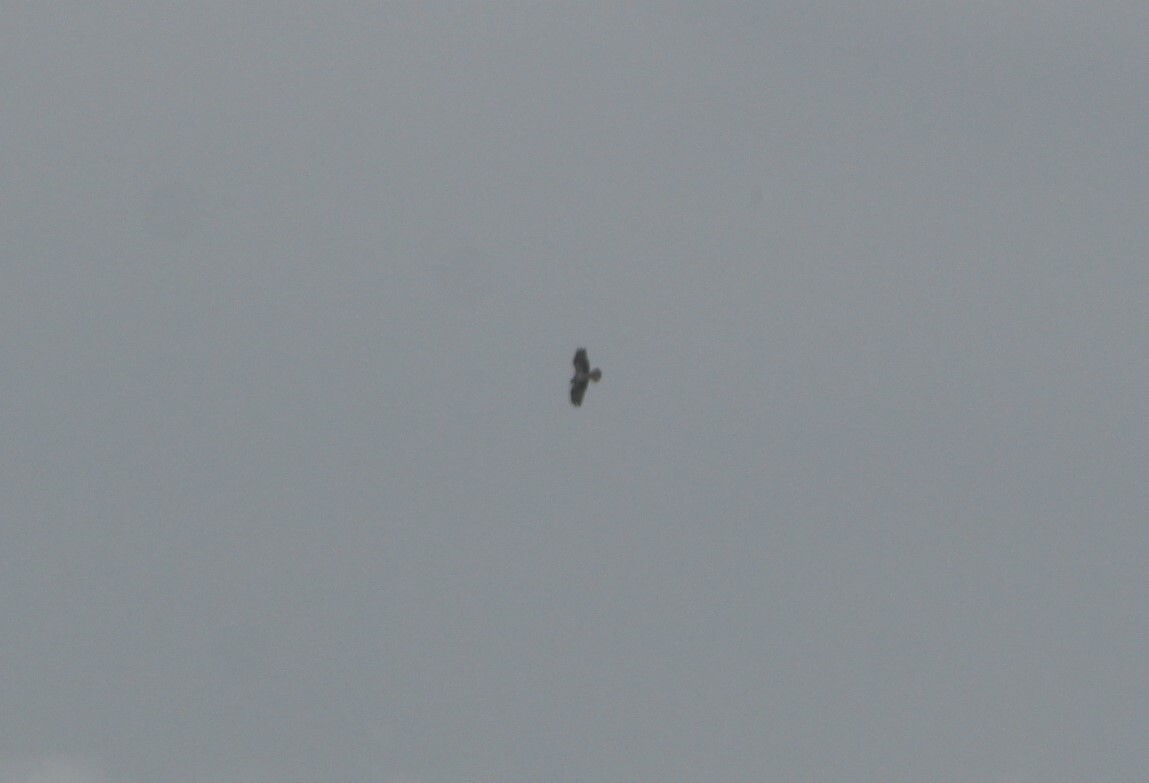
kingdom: Animalia
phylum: Chordata
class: Aves
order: Accipitriformes
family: Pandionidae
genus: Pandion
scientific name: Pandion haliaetus
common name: Osprey
